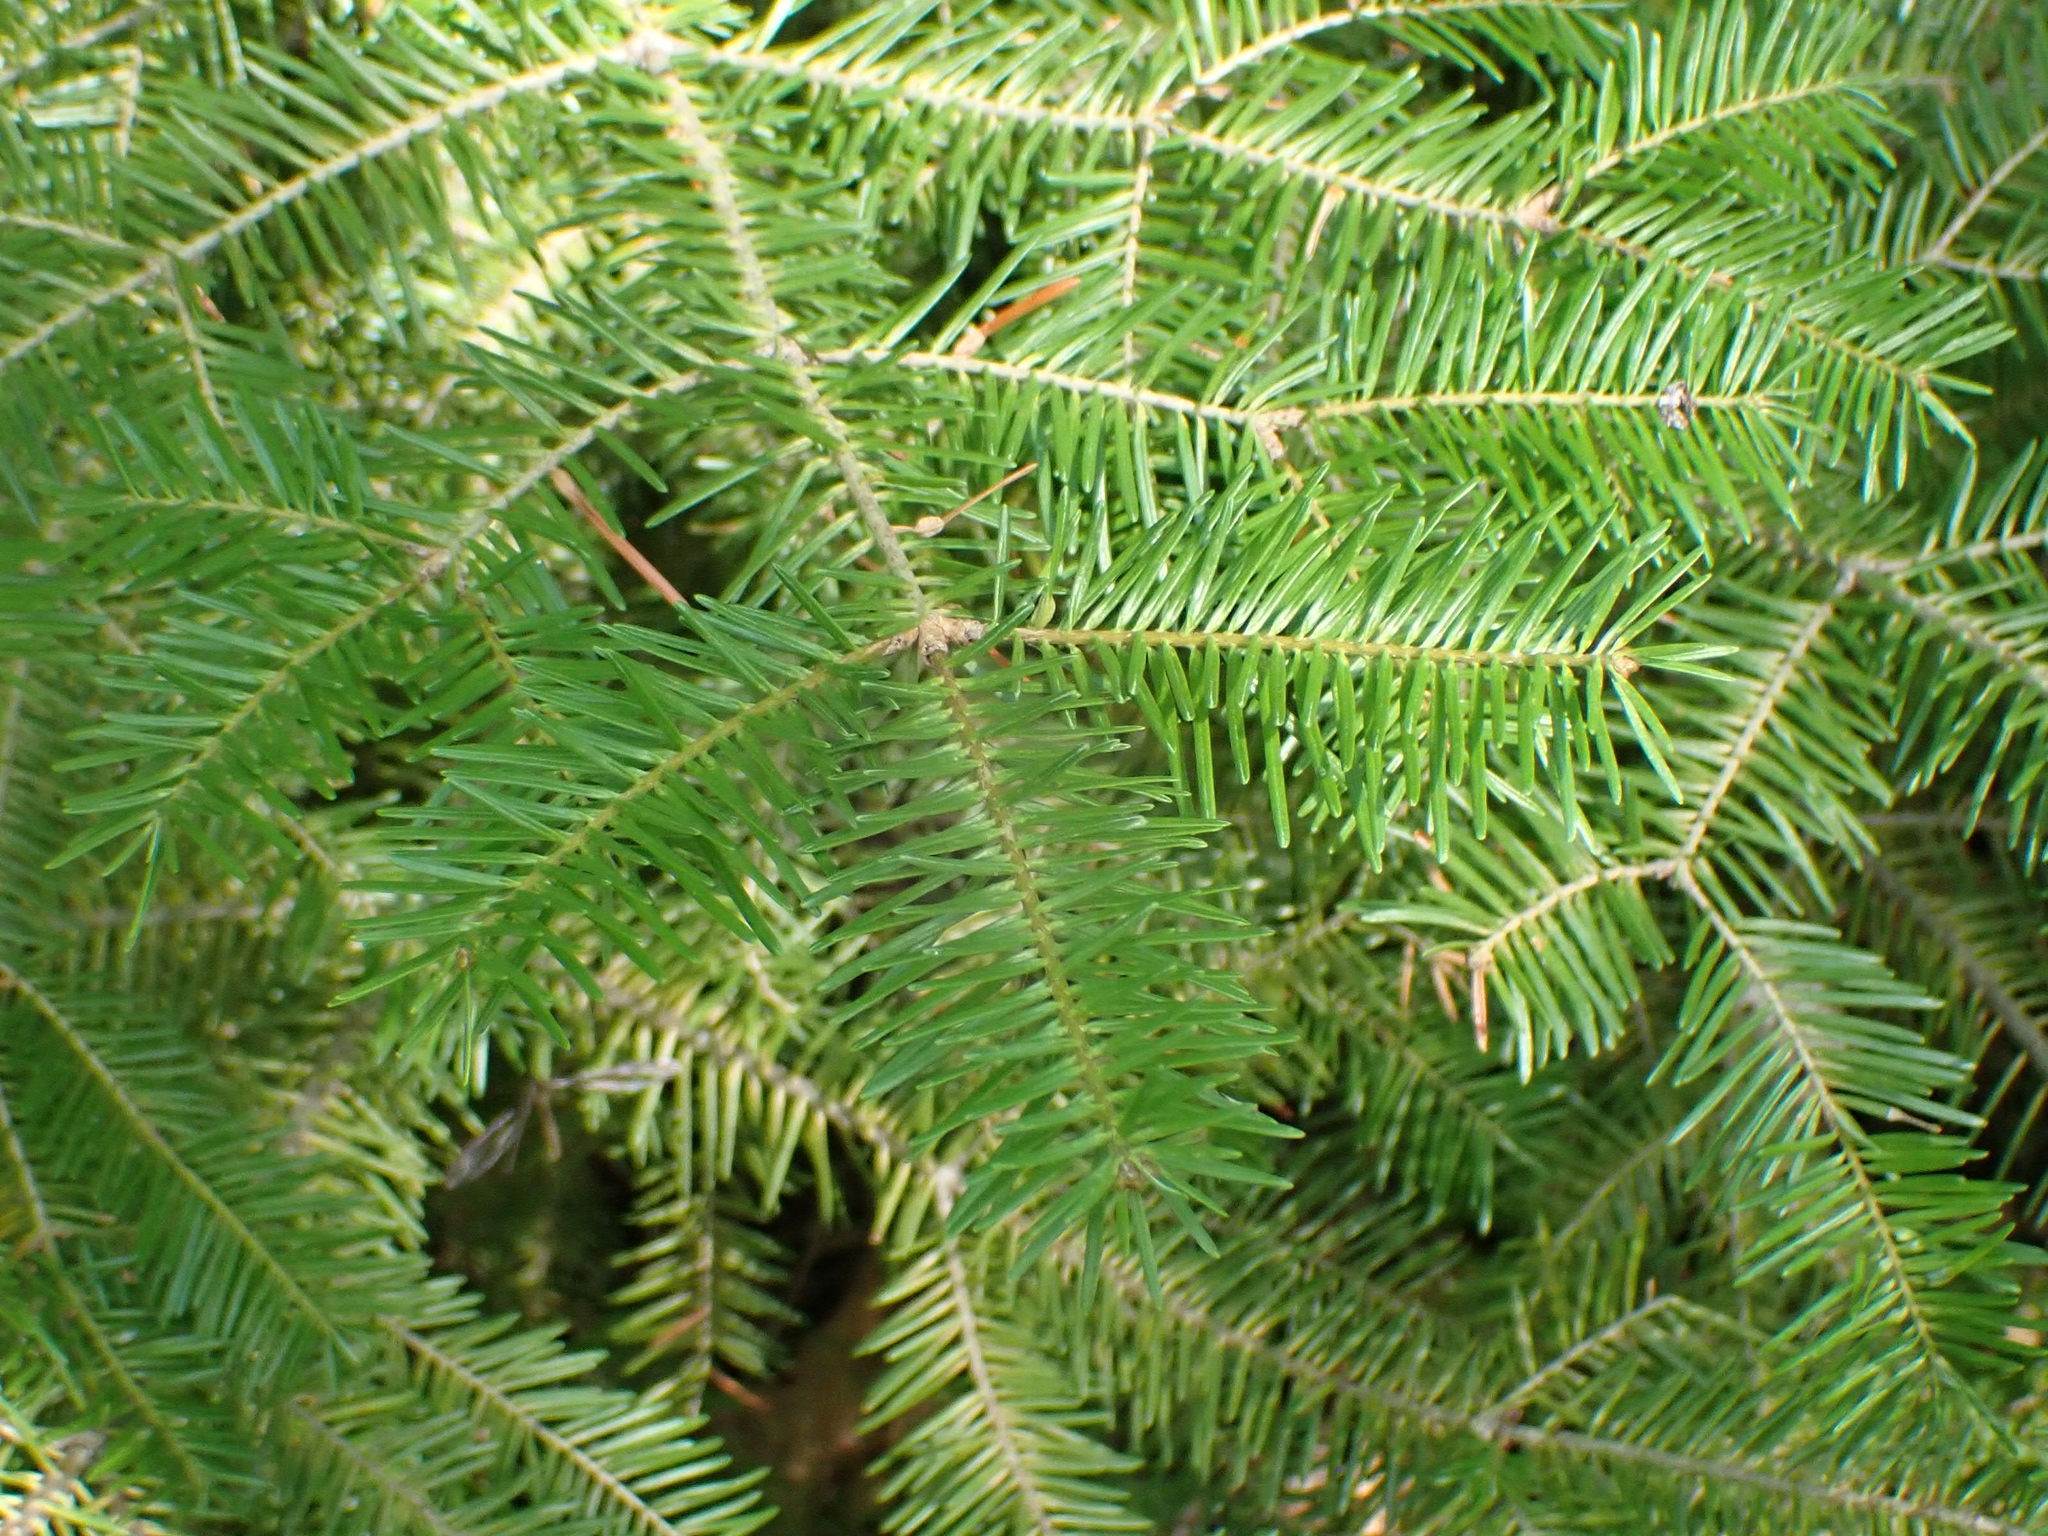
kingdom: Plantae
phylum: Tracheophyta
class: Pinopsida
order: Pinales
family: Pinaceae
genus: Abies
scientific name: Abies balsamea
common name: Balsam fir
